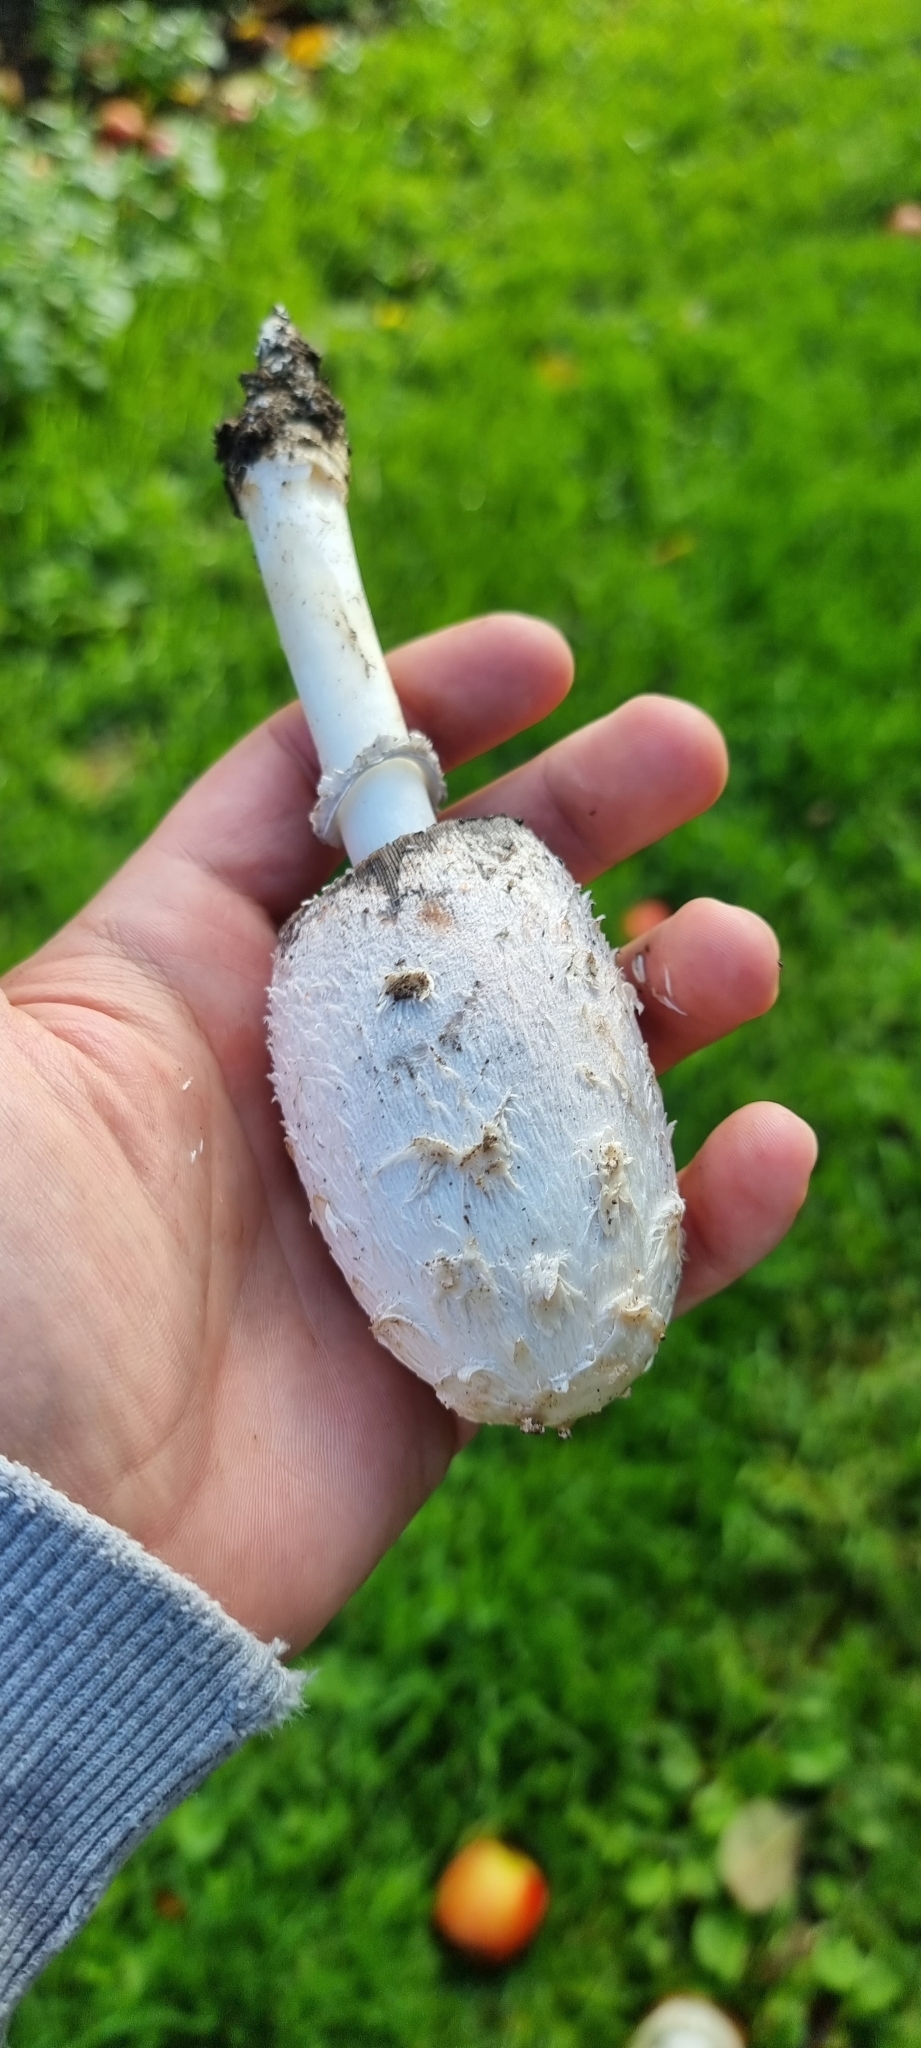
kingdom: Fungi
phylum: Basidiomycota
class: Agaricomycetes
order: Agaricales
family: Agaricaceae
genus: Coprinus
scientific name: Coprinus comatus
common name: Lawyer's wig
